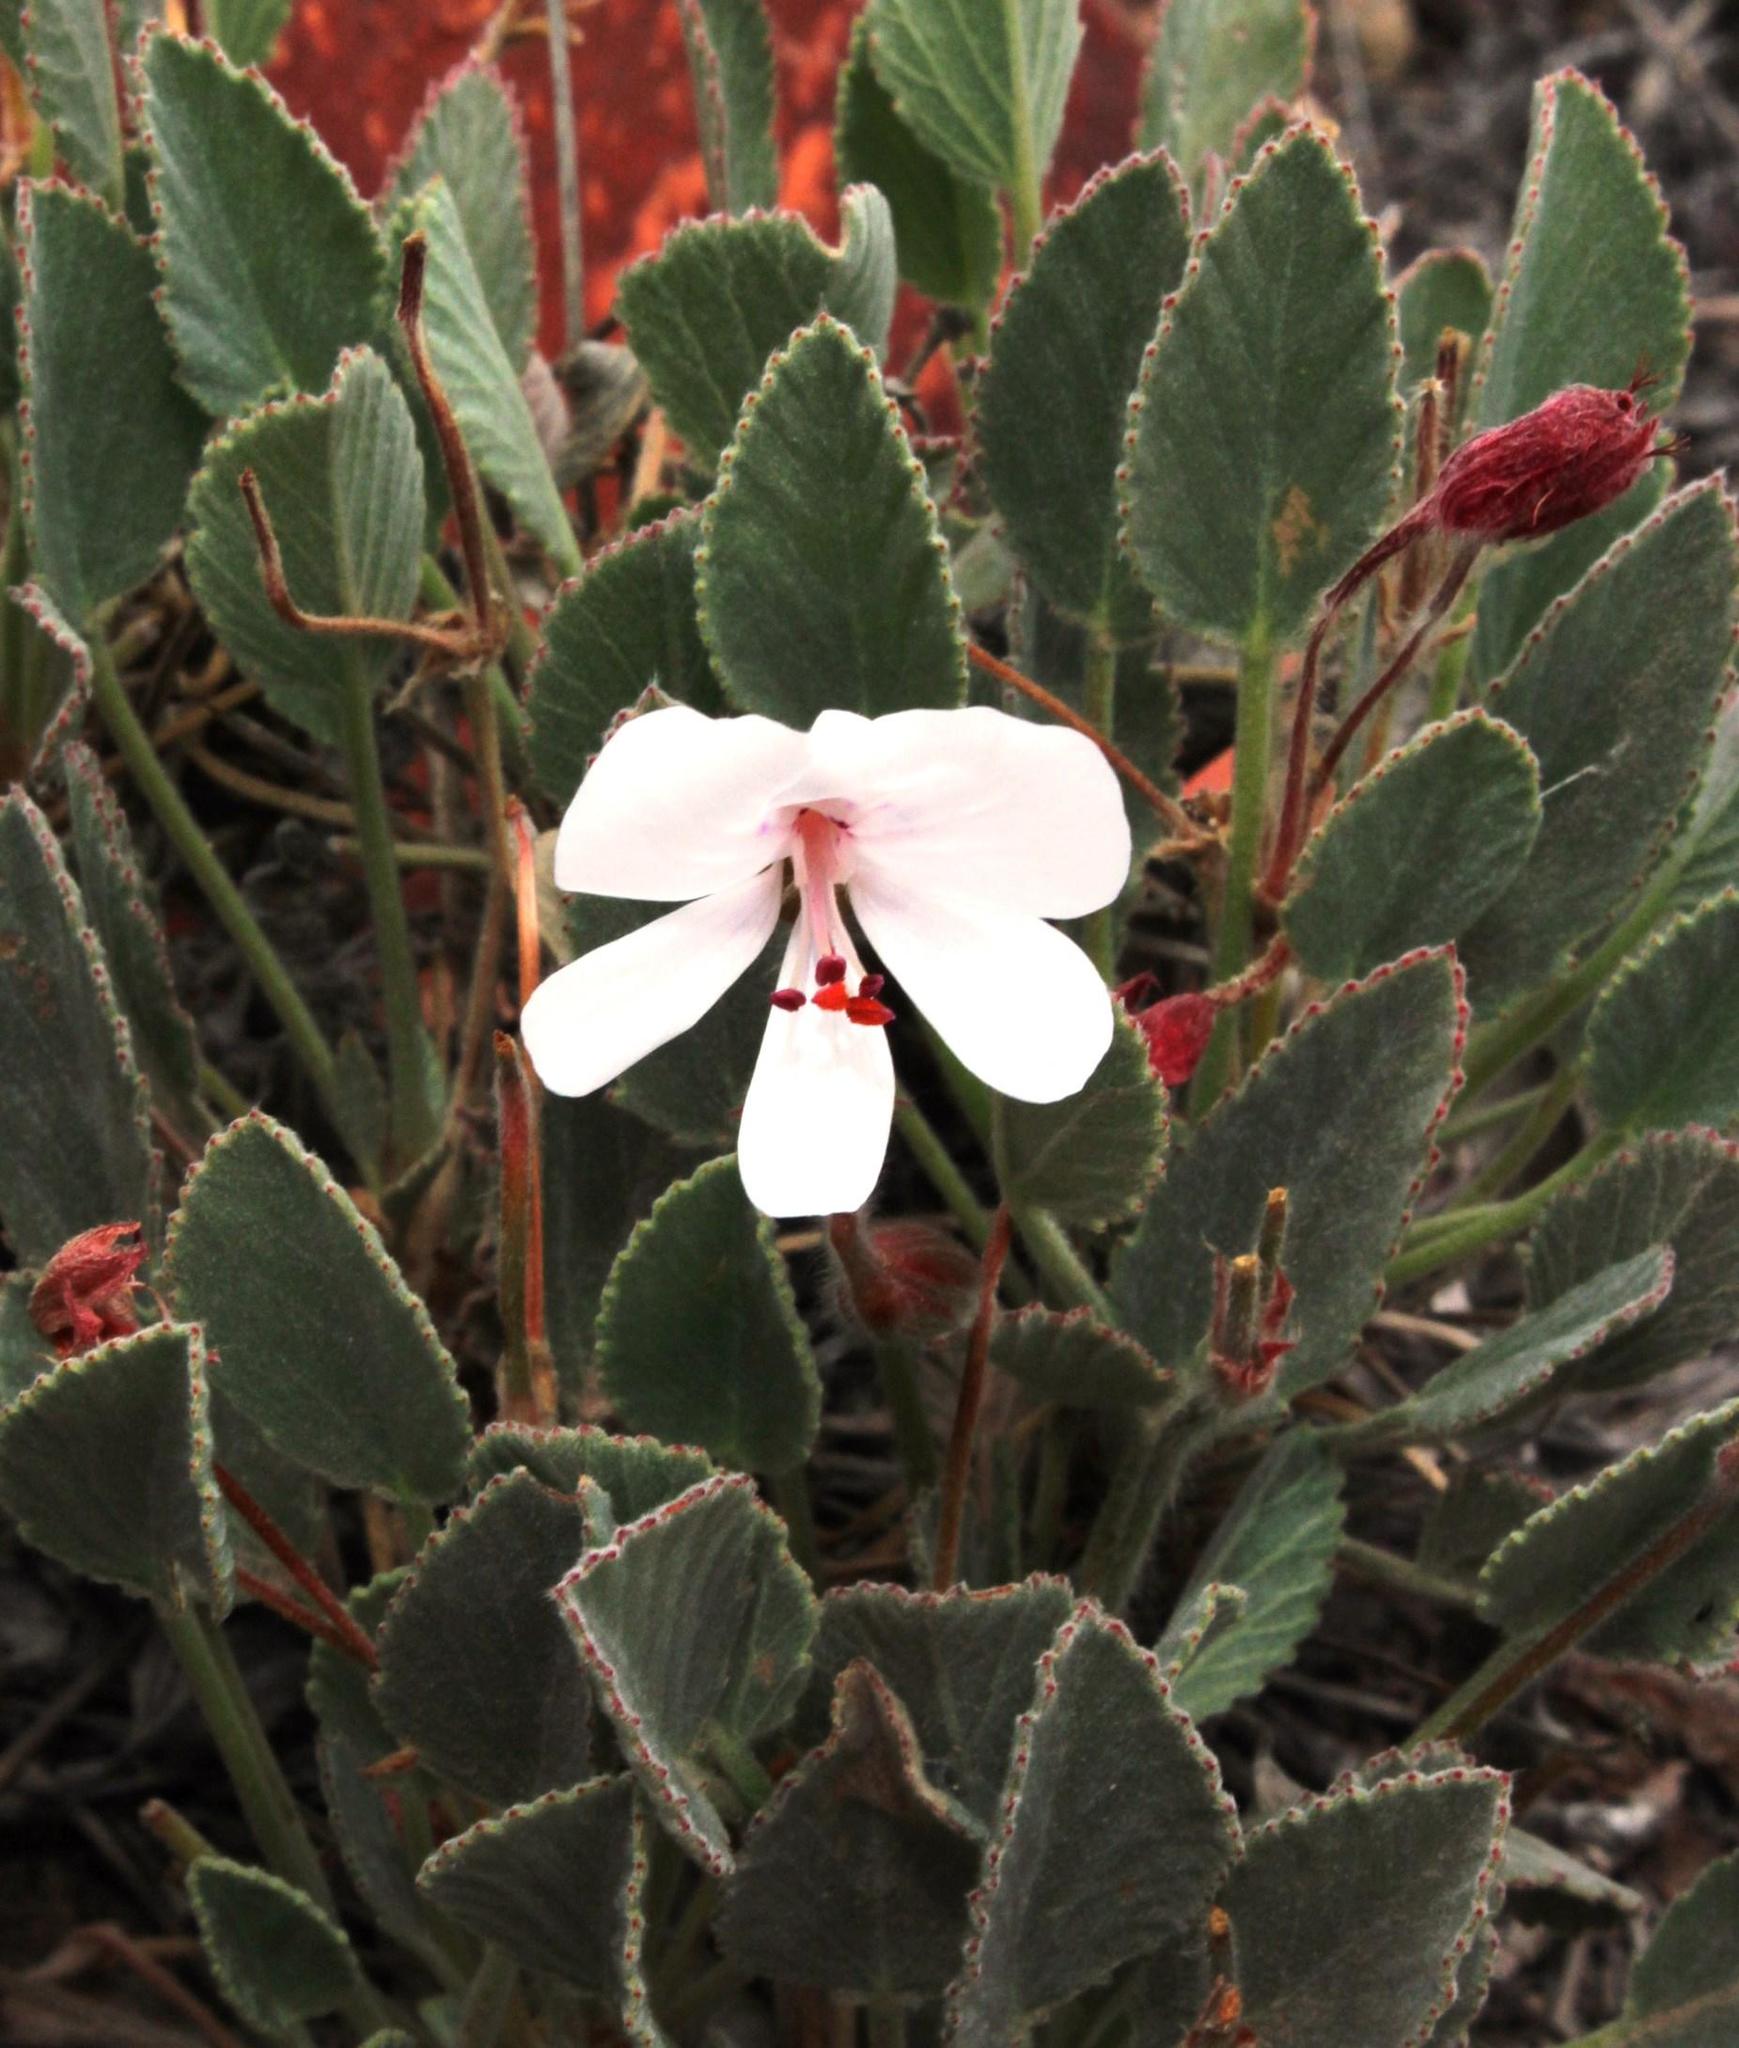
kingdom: Plantae
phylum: Tracheophyta
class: Magnoliopsida
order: Geraniales
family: Geraniaceae
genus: Pelargonium
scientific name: Pelargonium ovale
